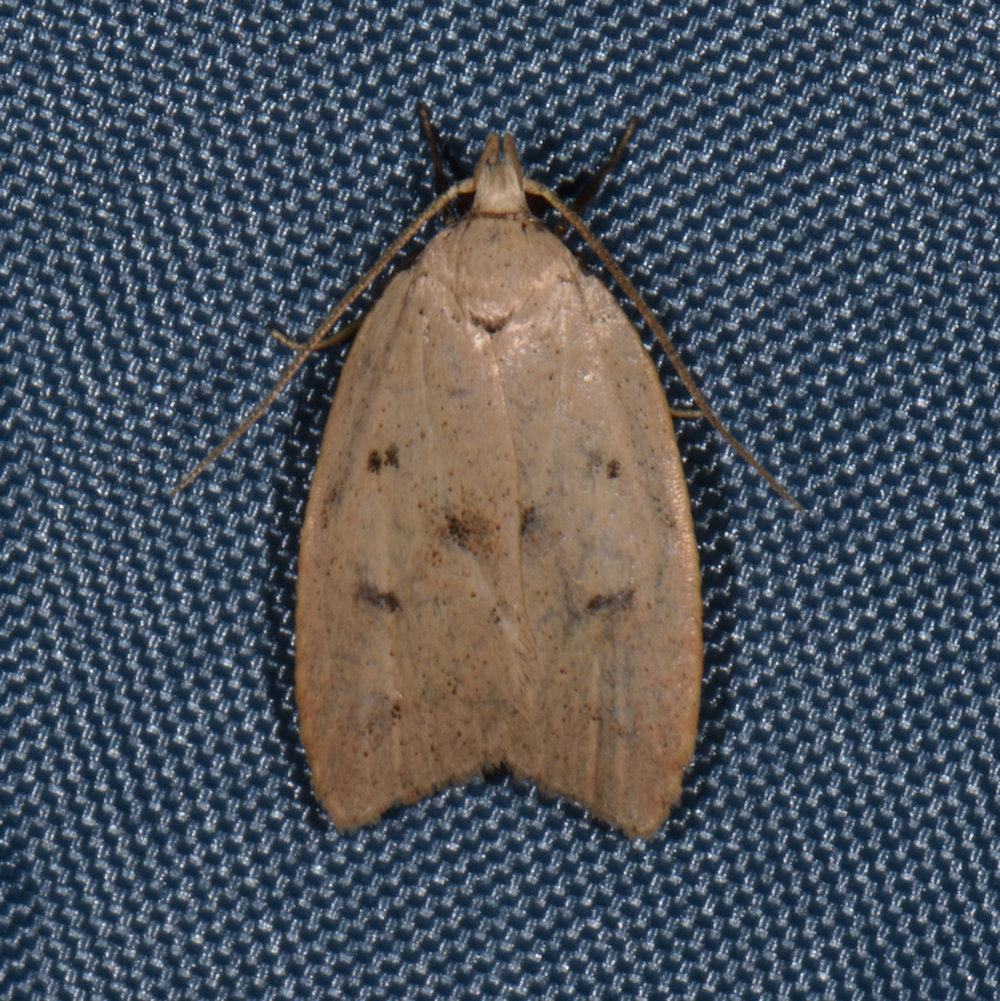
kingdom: Animalia
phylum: Arthropoda
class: Insecta
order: Lepidoptera
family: Peleopodidae
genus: Machimia
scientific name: Machimia tentoriferella
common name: Gold-striped leaftier moth
